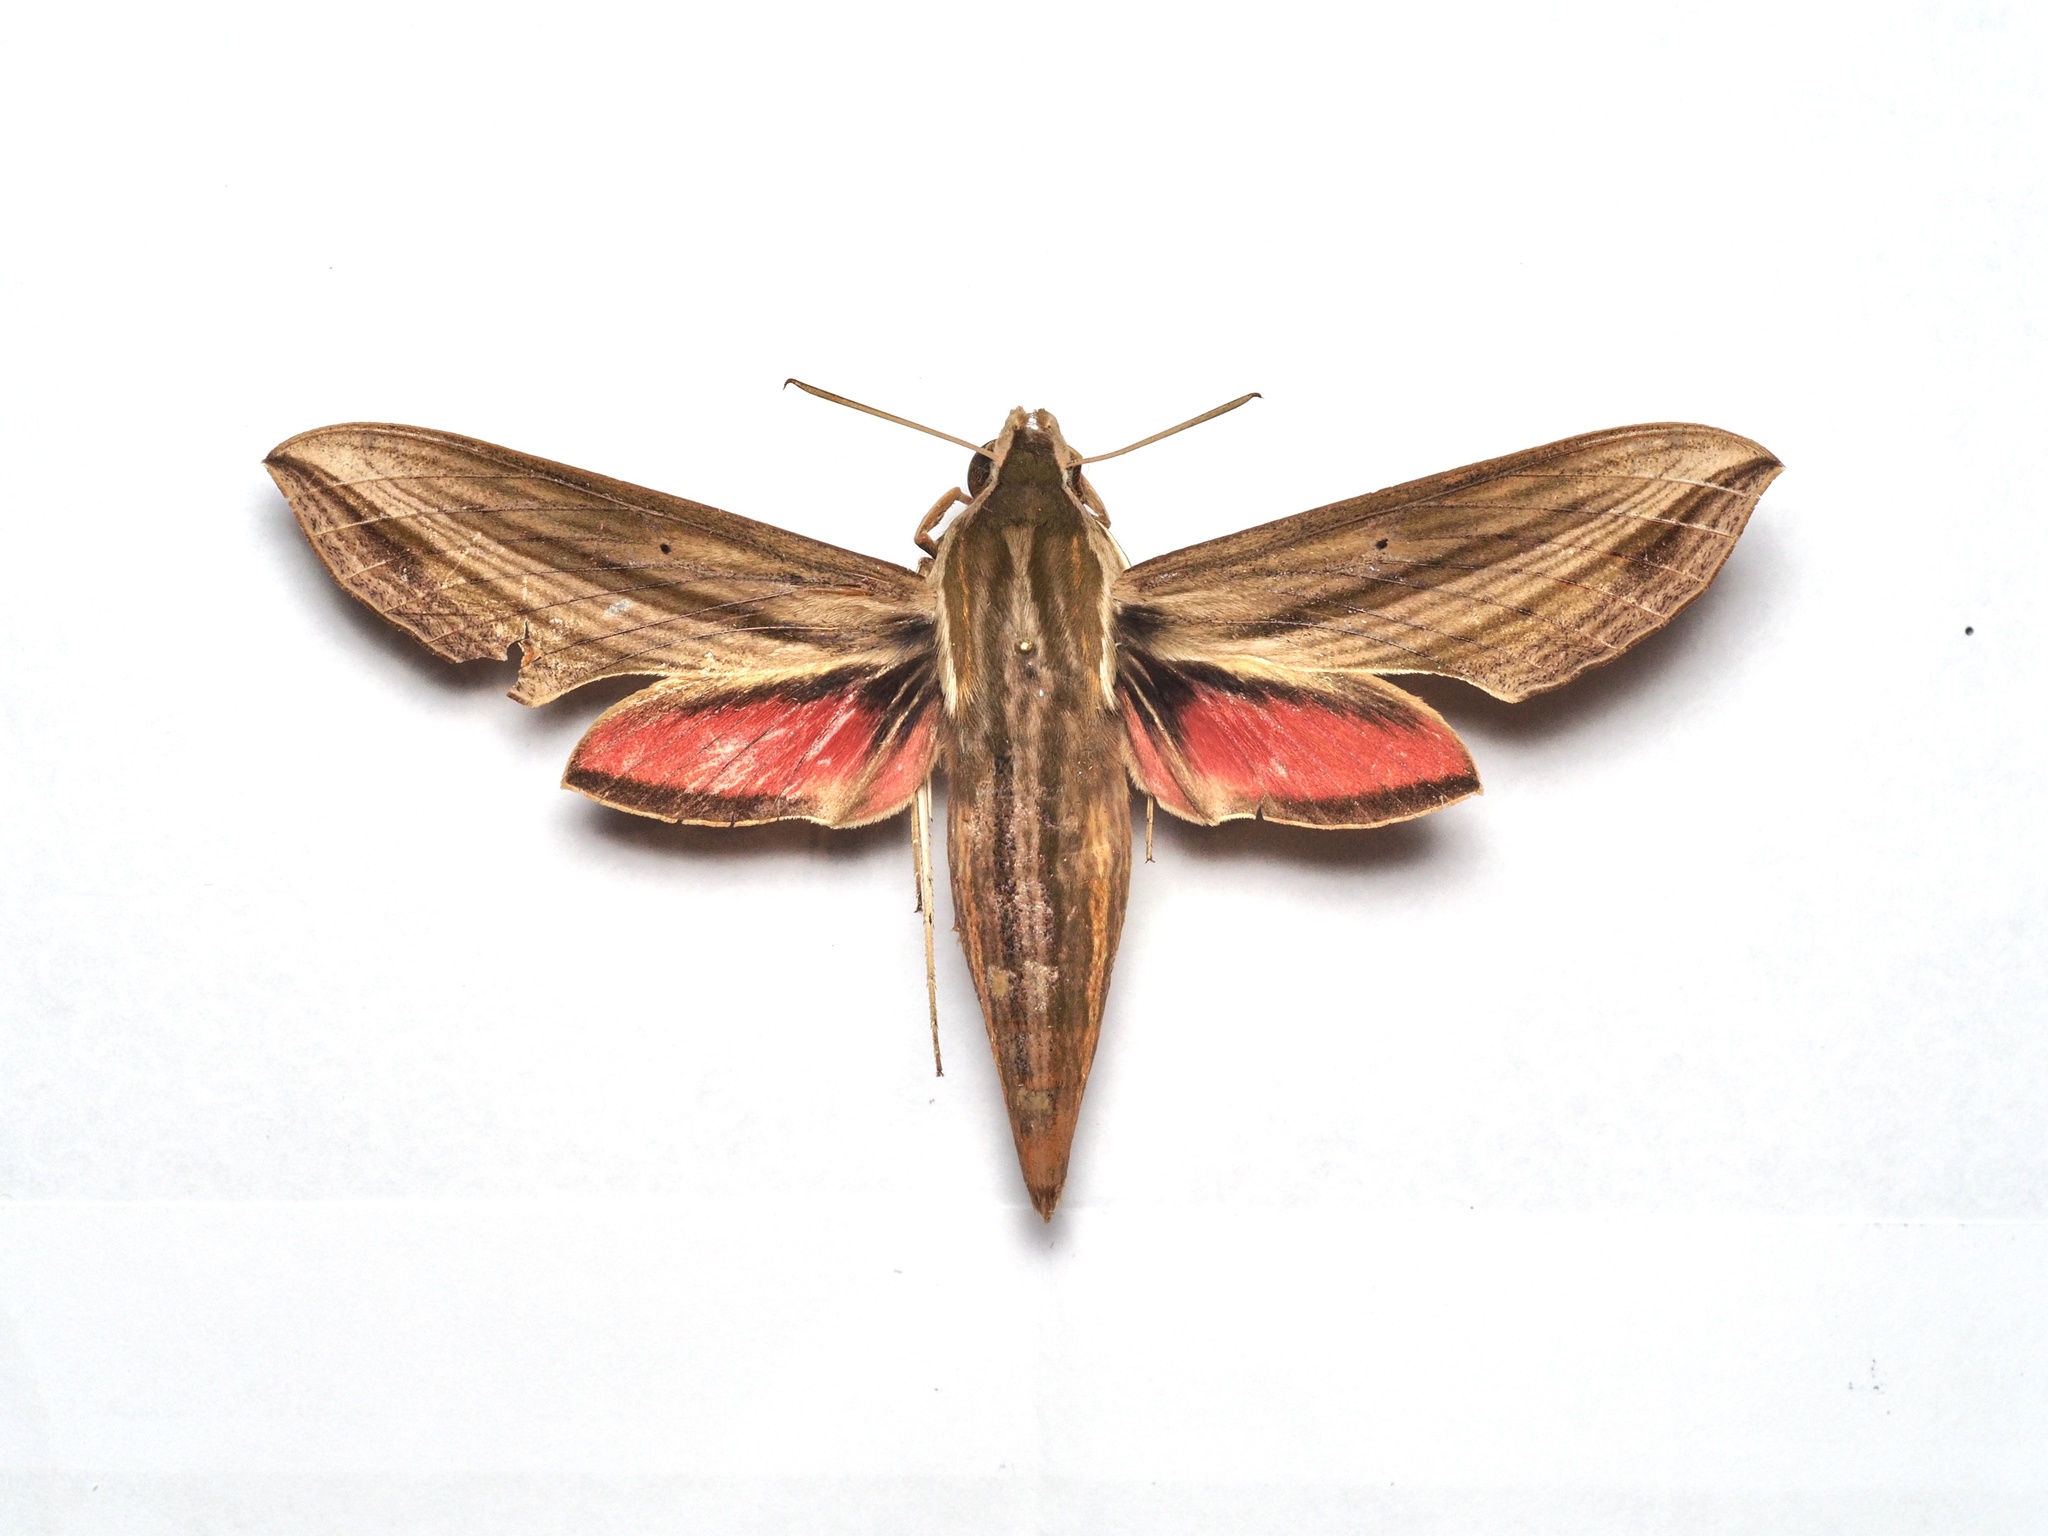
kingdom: Animalia
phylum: Arthropoda
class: Insecta
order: Lepidoptera
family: Sphingidae
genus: Hippotion
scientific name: Hippotion eson
